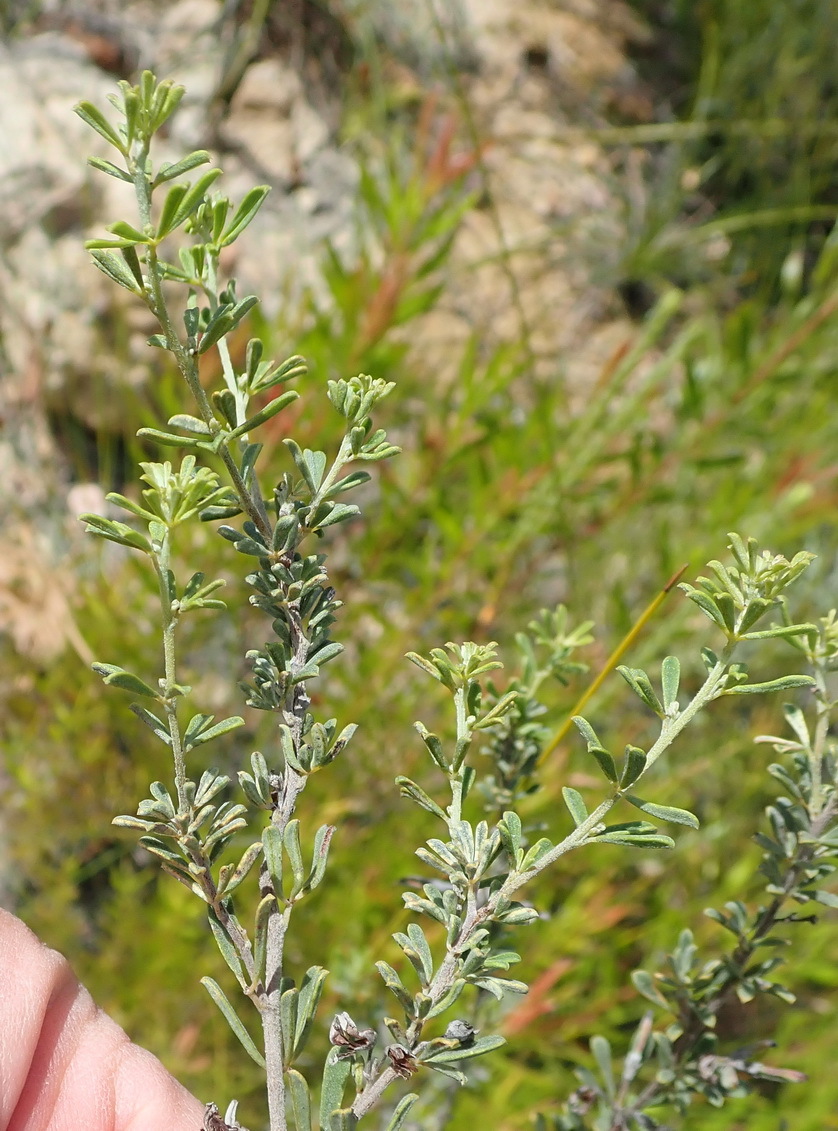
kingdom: Plantae
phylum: Tracheophyta
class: Magnoliopsida
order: Fabales
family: Fabaceae
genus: Indigofera
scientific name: Indigofera flabellata
